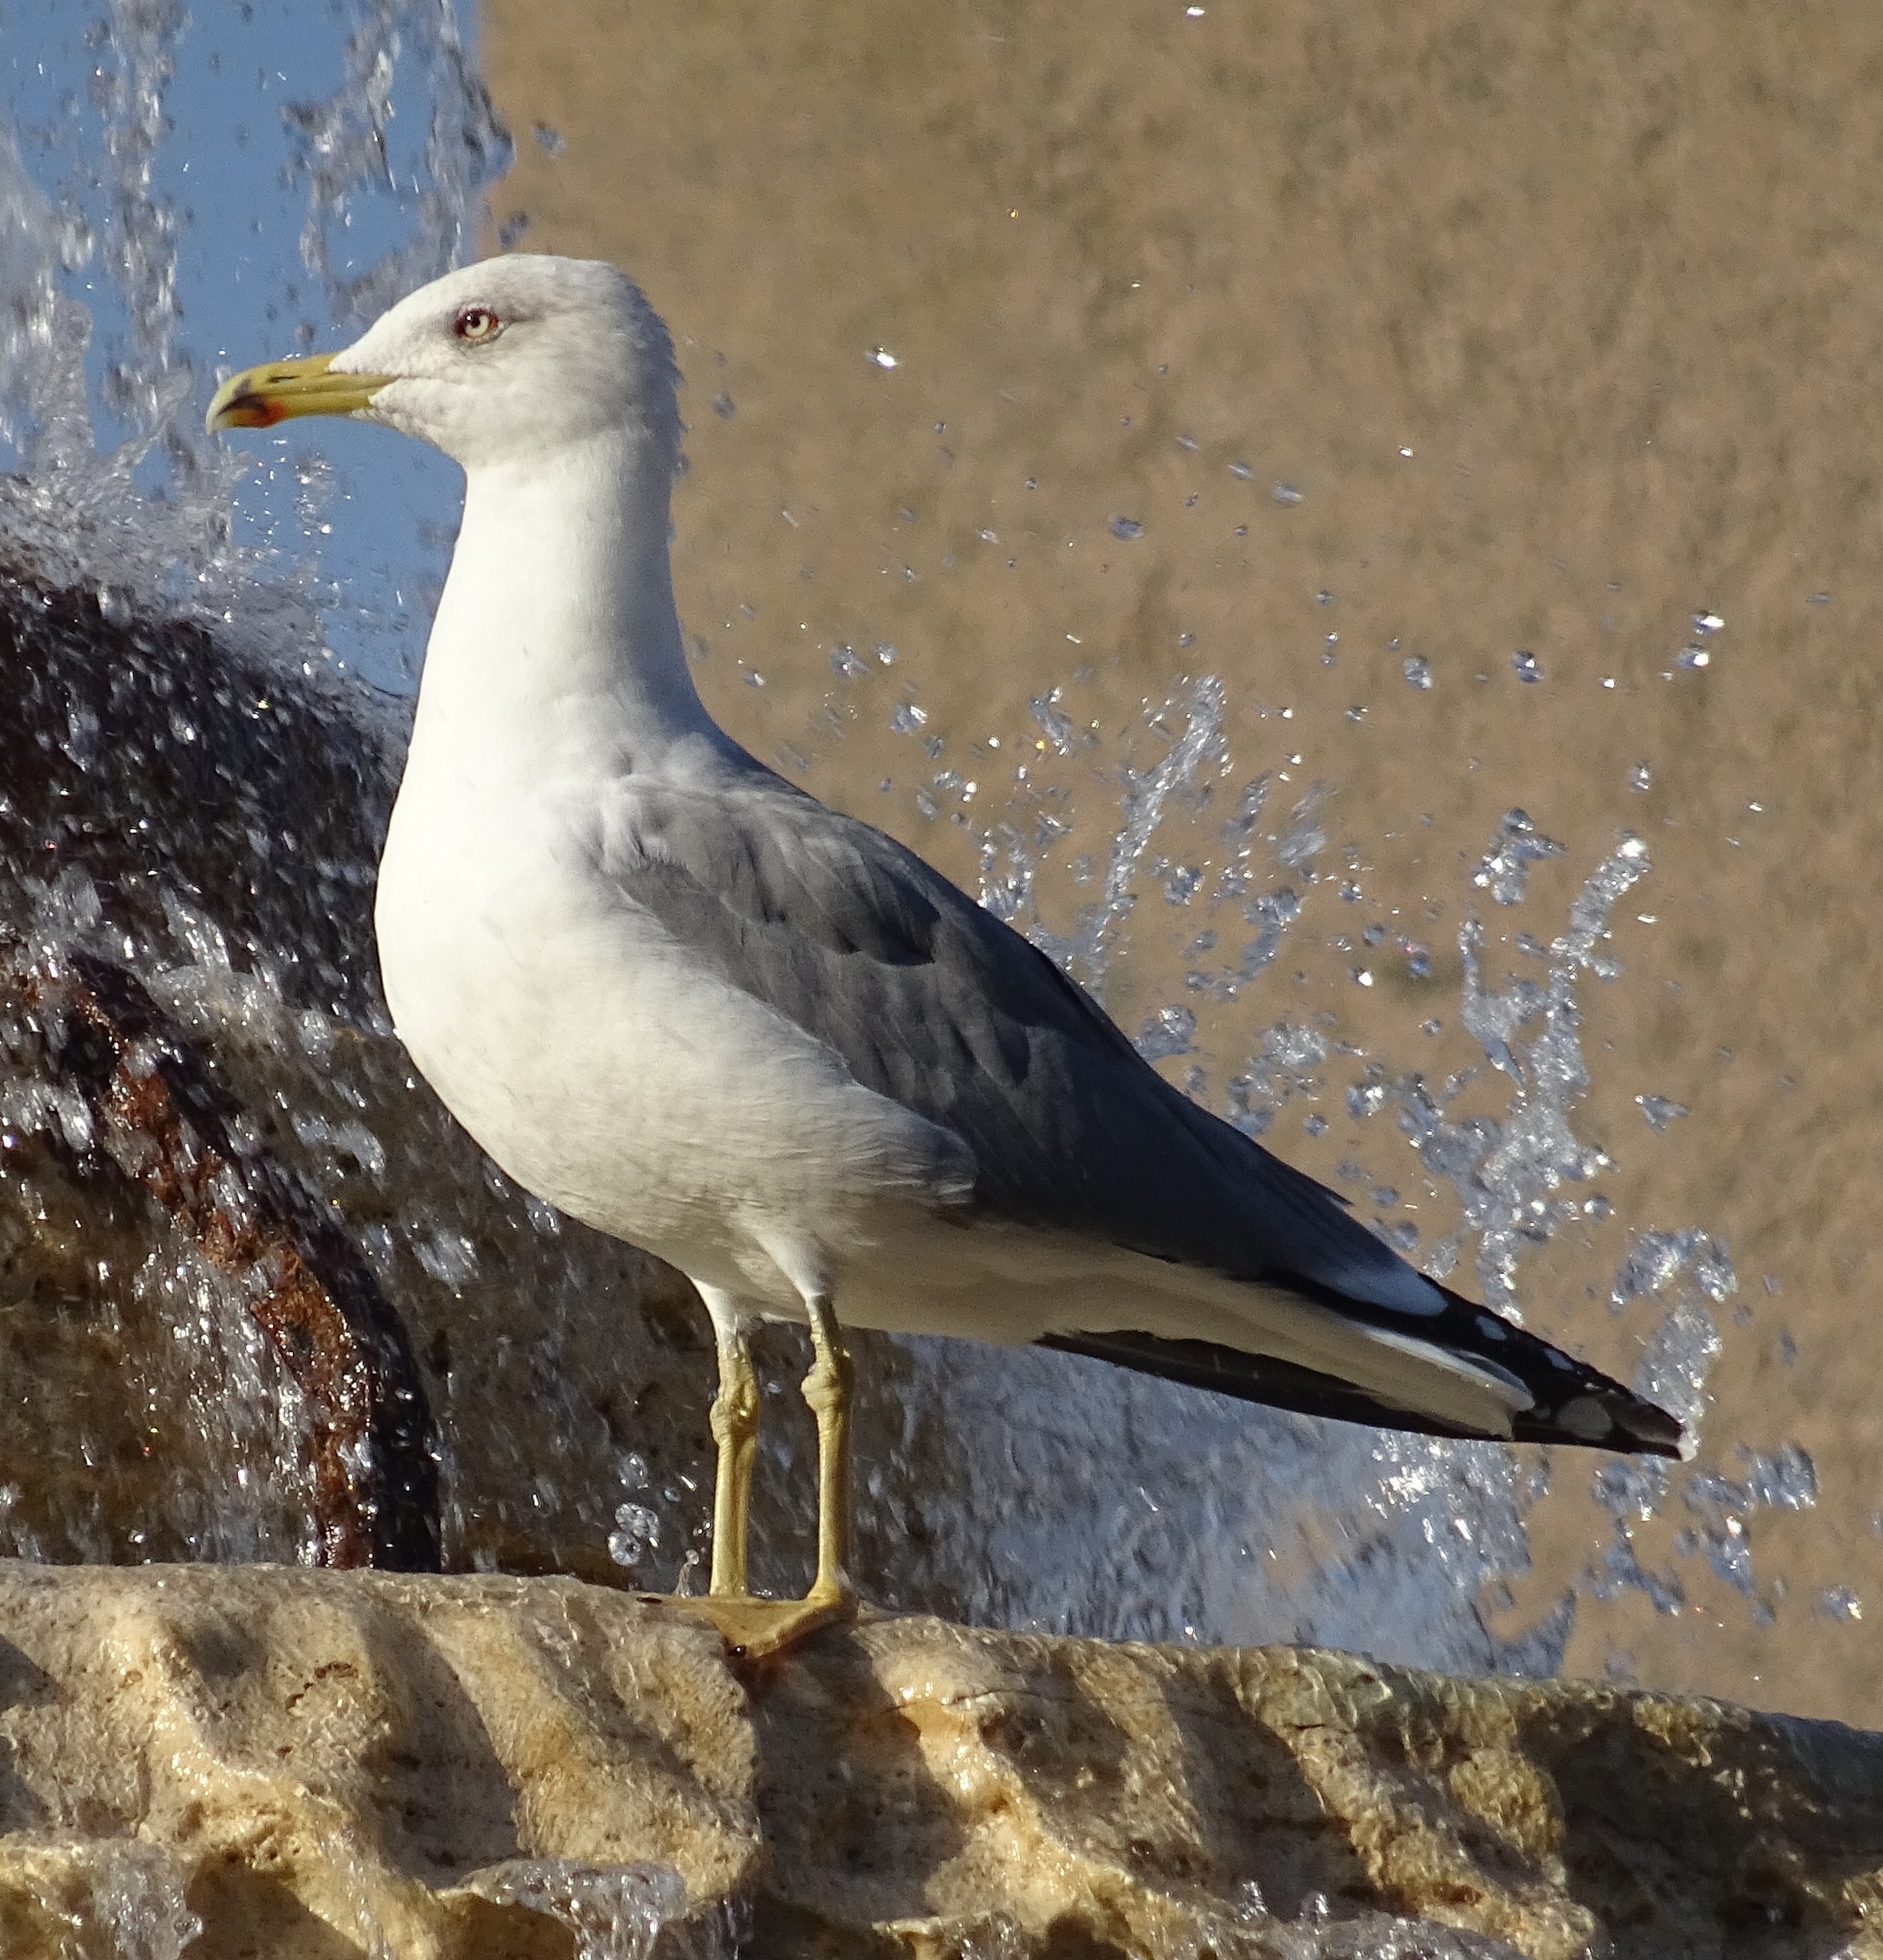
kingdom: Animalia
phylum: Chordata
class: Aves
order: Charadriiformes
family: Laridae
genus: Larus
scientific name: Larus michahellis
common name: Yellow-legged gull
